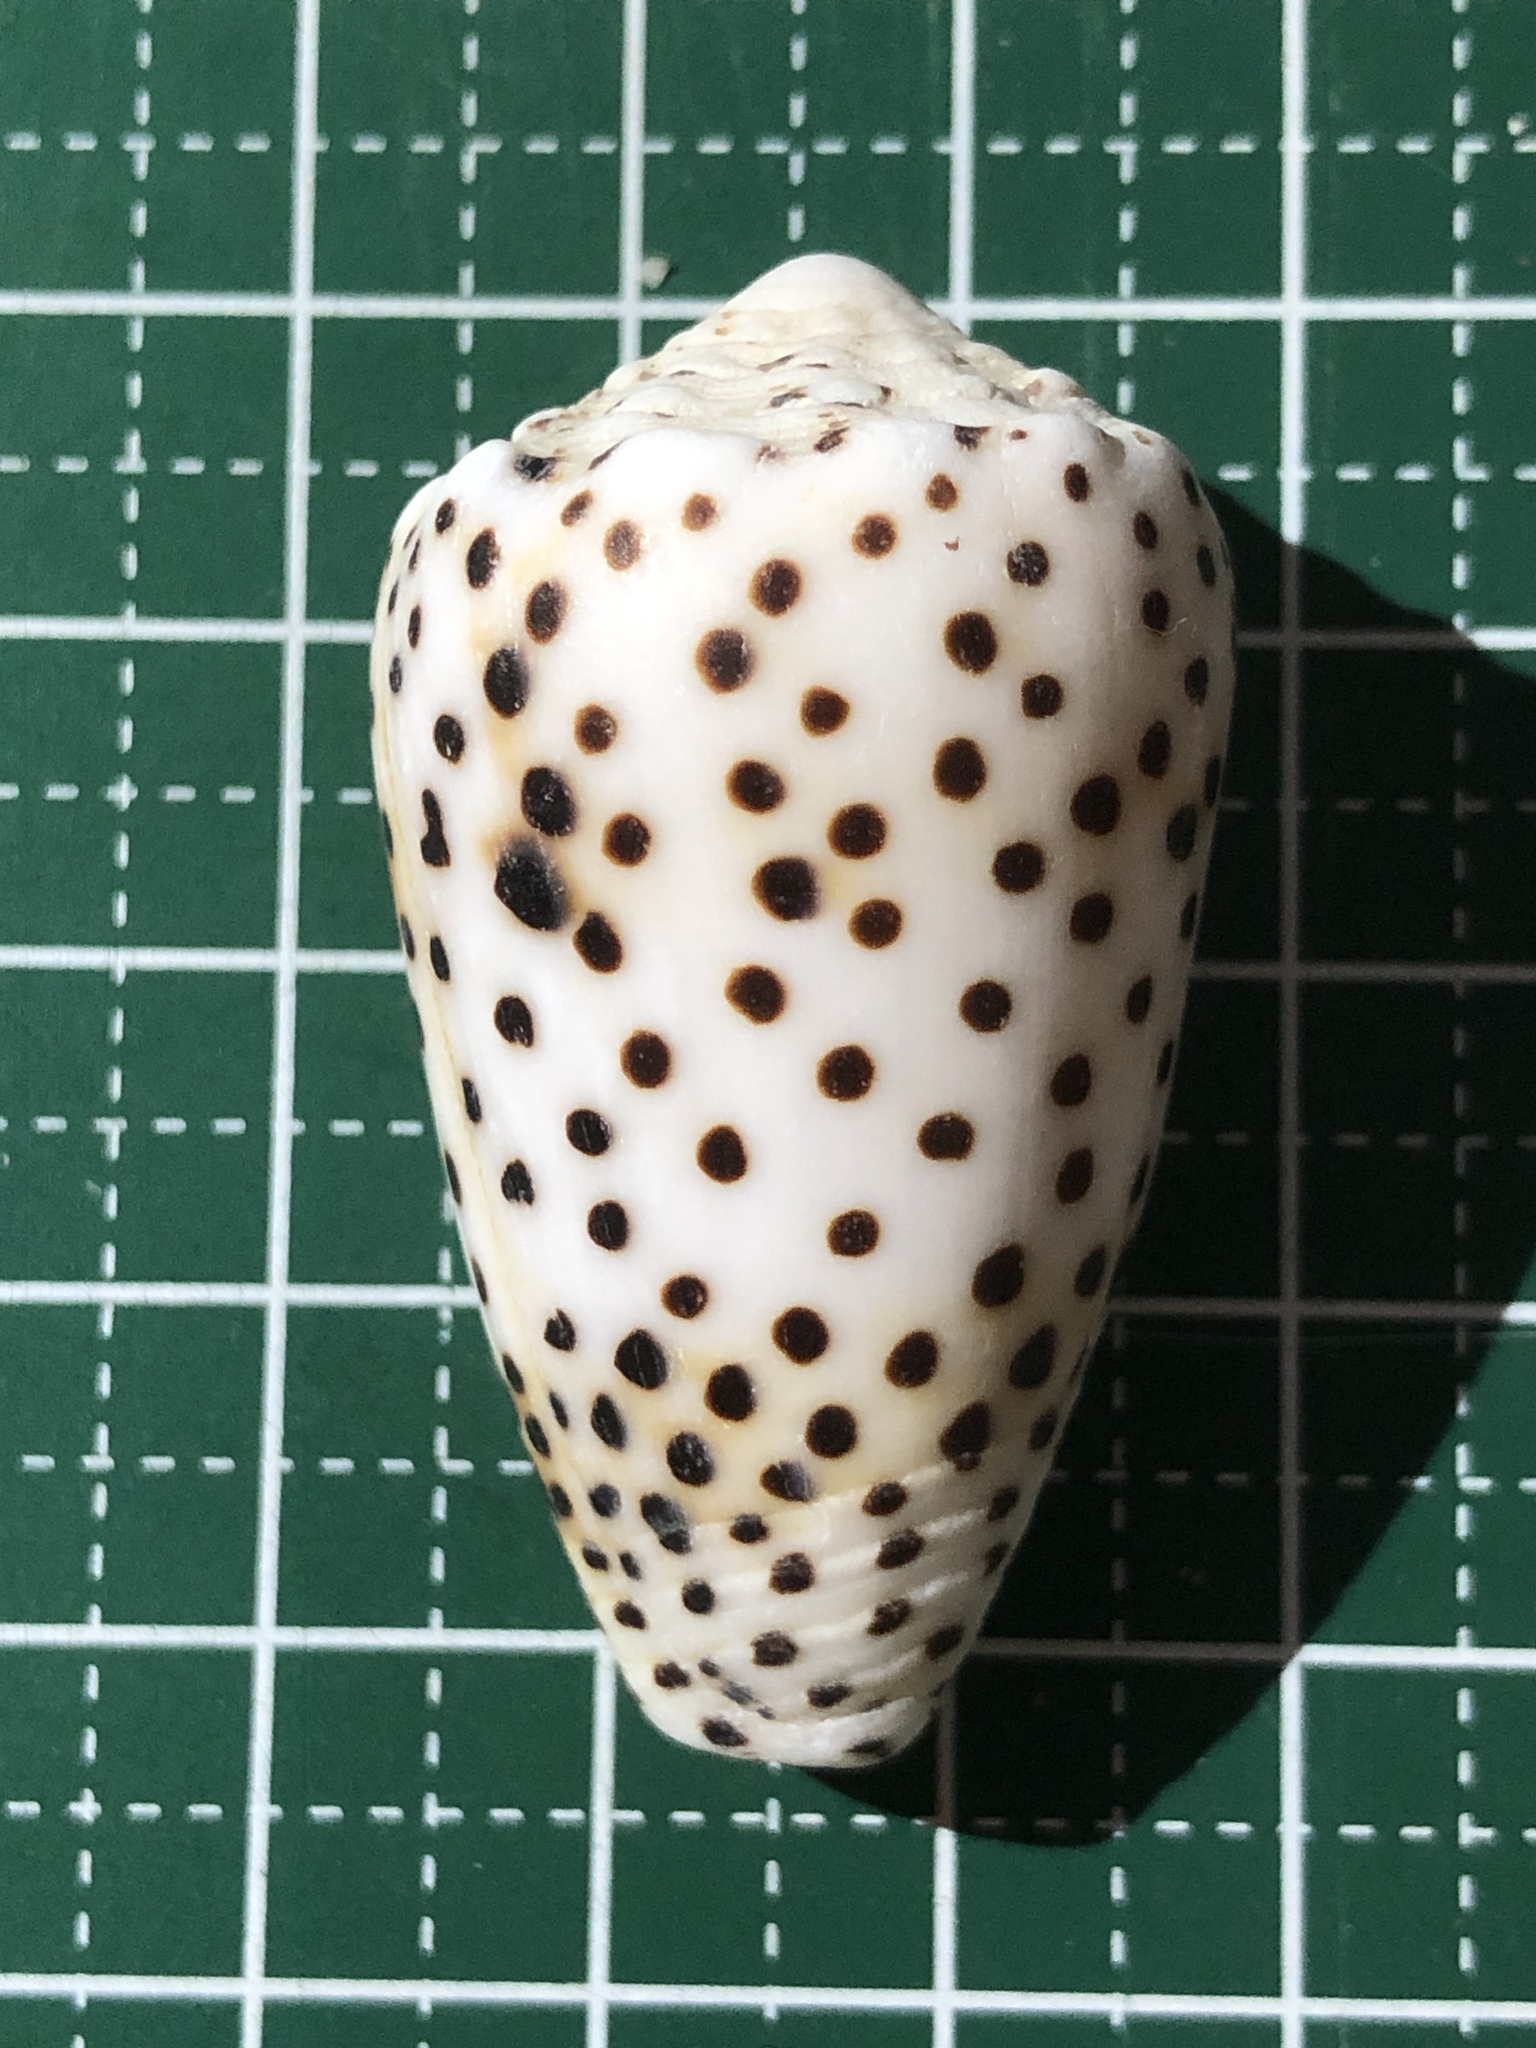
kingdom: Animalia
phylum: Mollusca
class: Gastropoda
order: Neogastropoda
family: Conidae
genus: Conus
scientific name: Conus pulicarius
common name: Flea-bite cone
